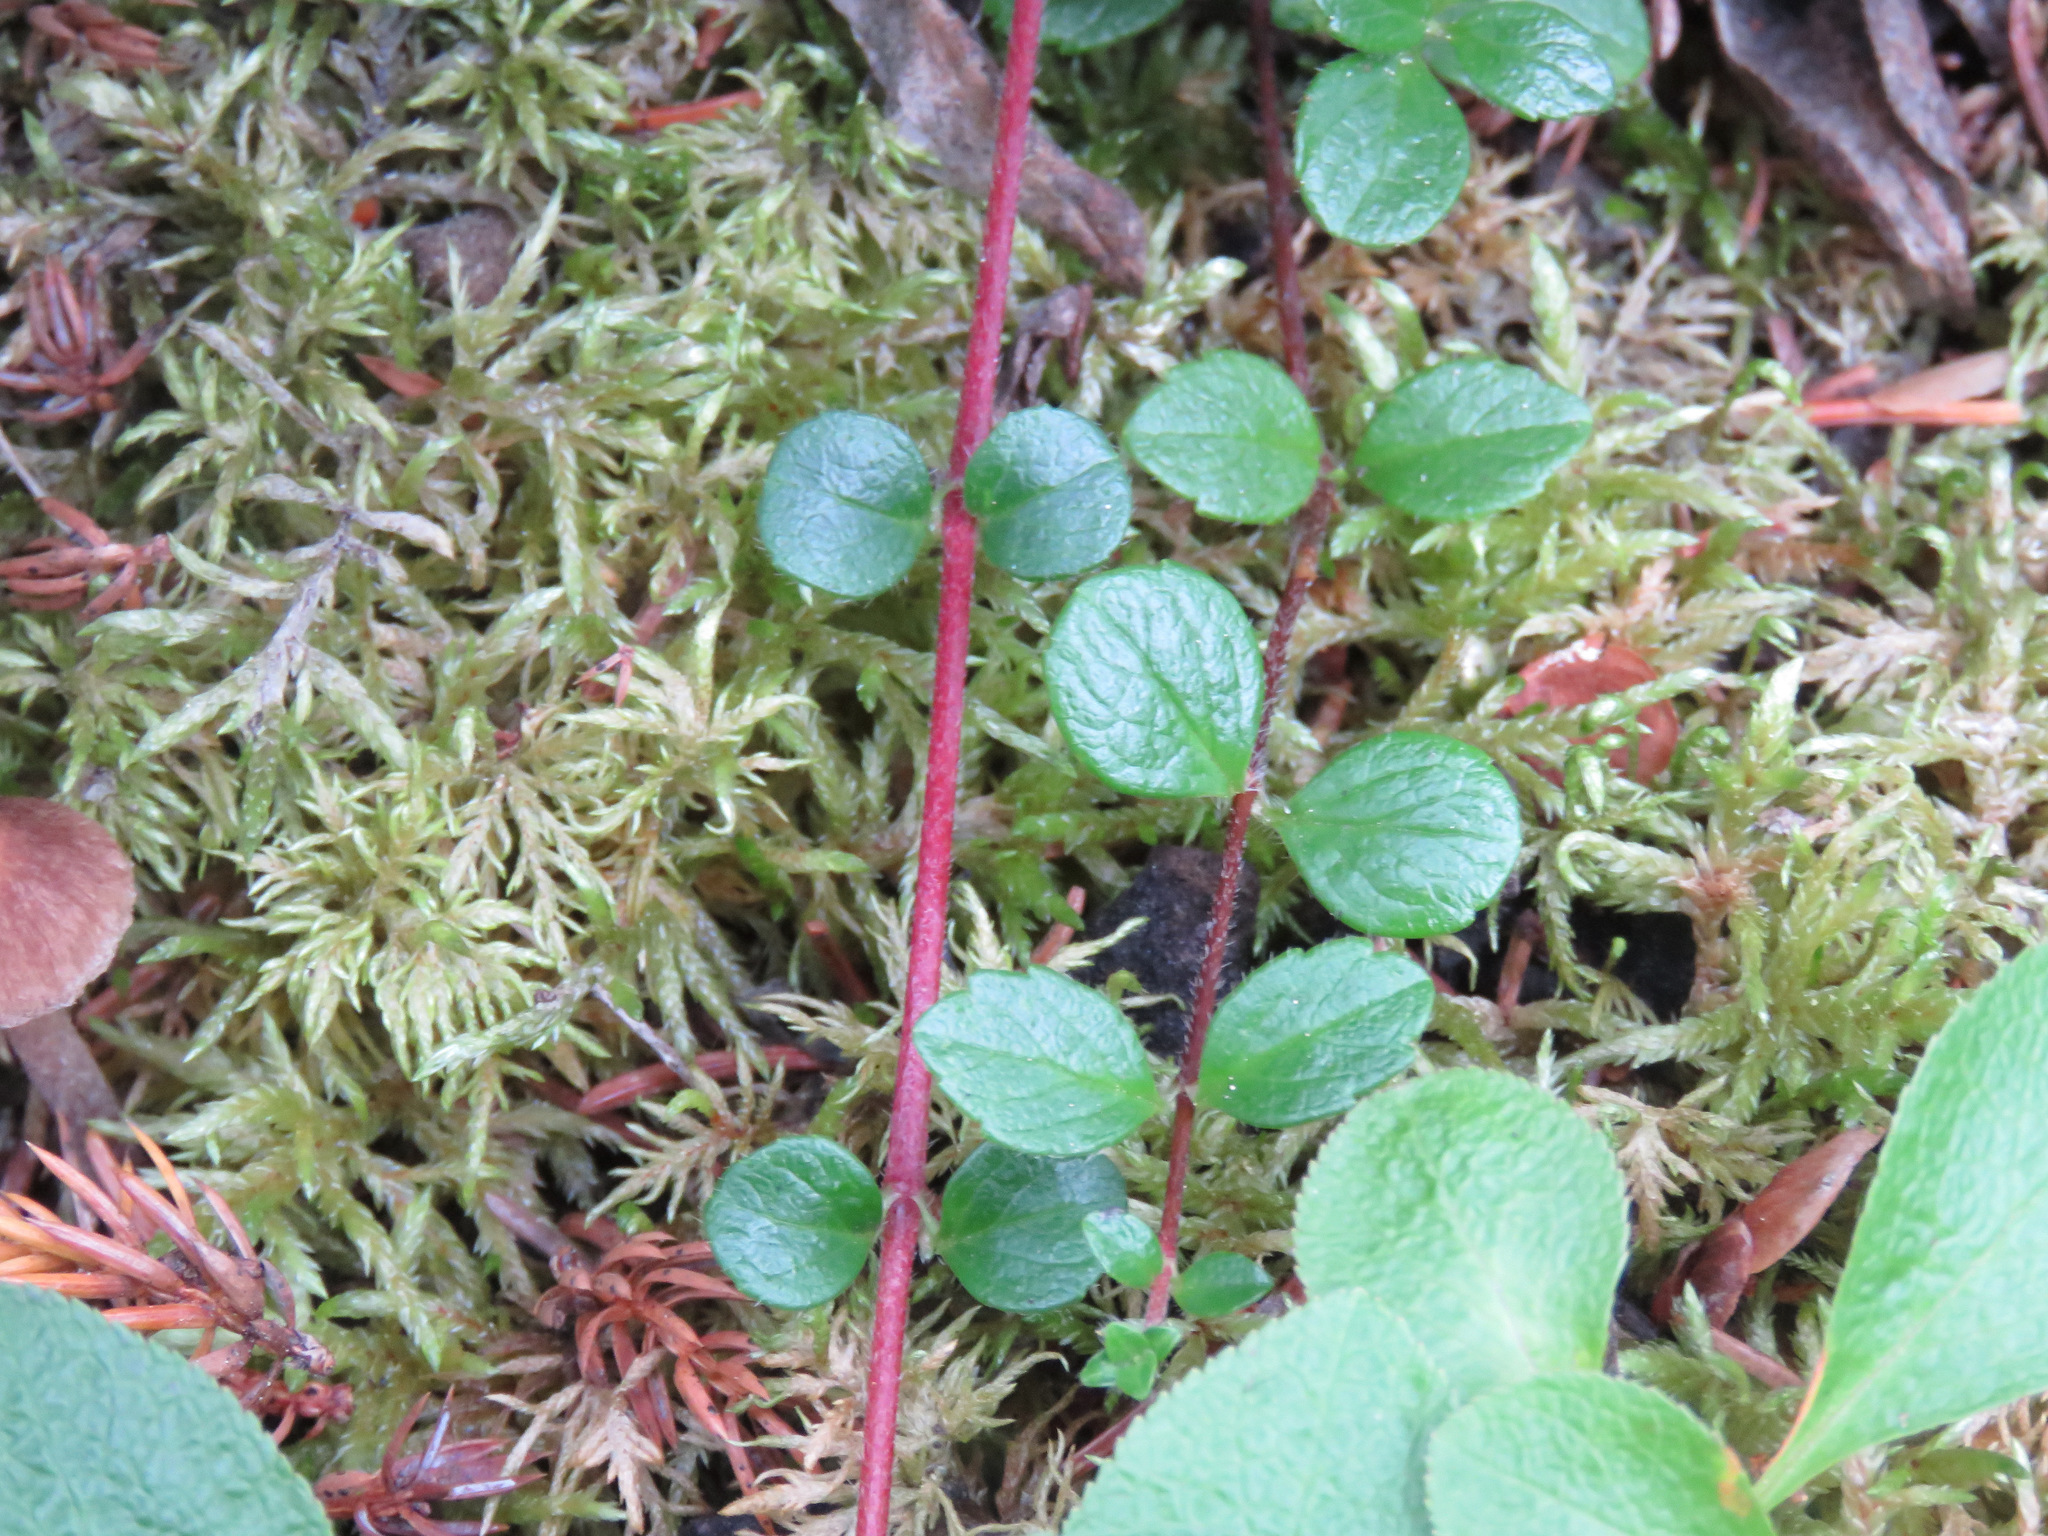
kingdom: Plantae
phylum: Tracheophyta
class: Magnoliopsida
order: Dipsacales
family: Caprifoliaceae
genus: Linnaea
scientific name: Linnaea borealis
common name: Twinflower
